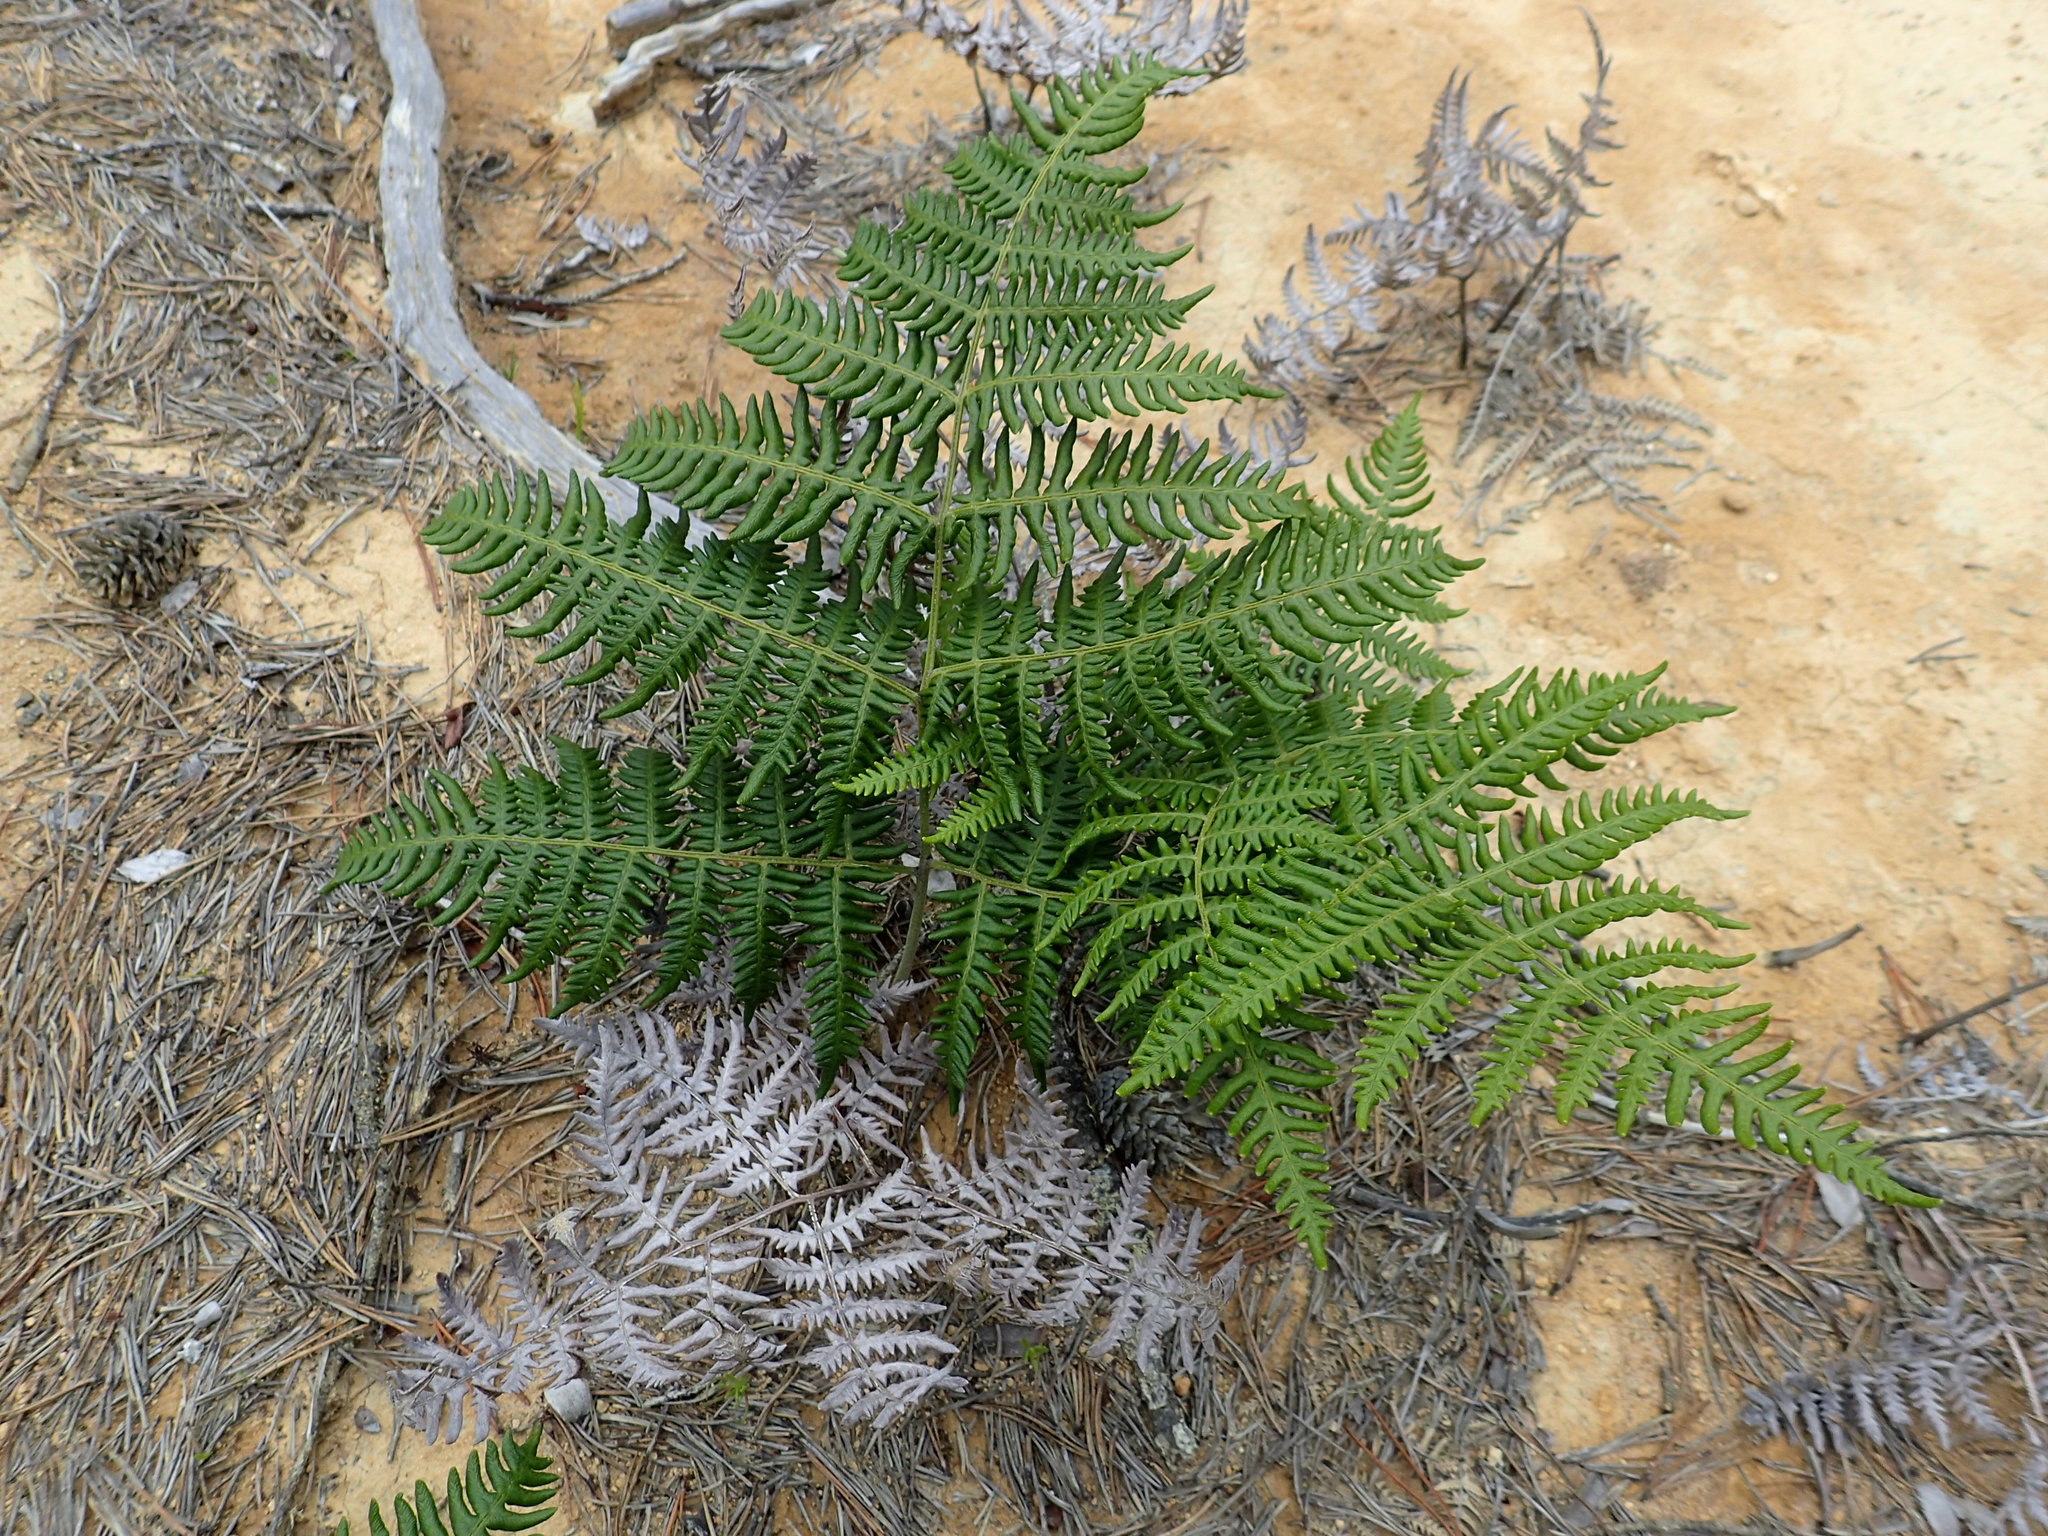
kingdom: Plantae
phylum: Tracheophyta
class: Polypodiopsida
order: Polypodiales
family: Dennstaedtiaceae
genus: Pteridium
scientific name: Pteridium aquilinum
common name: Bracken
